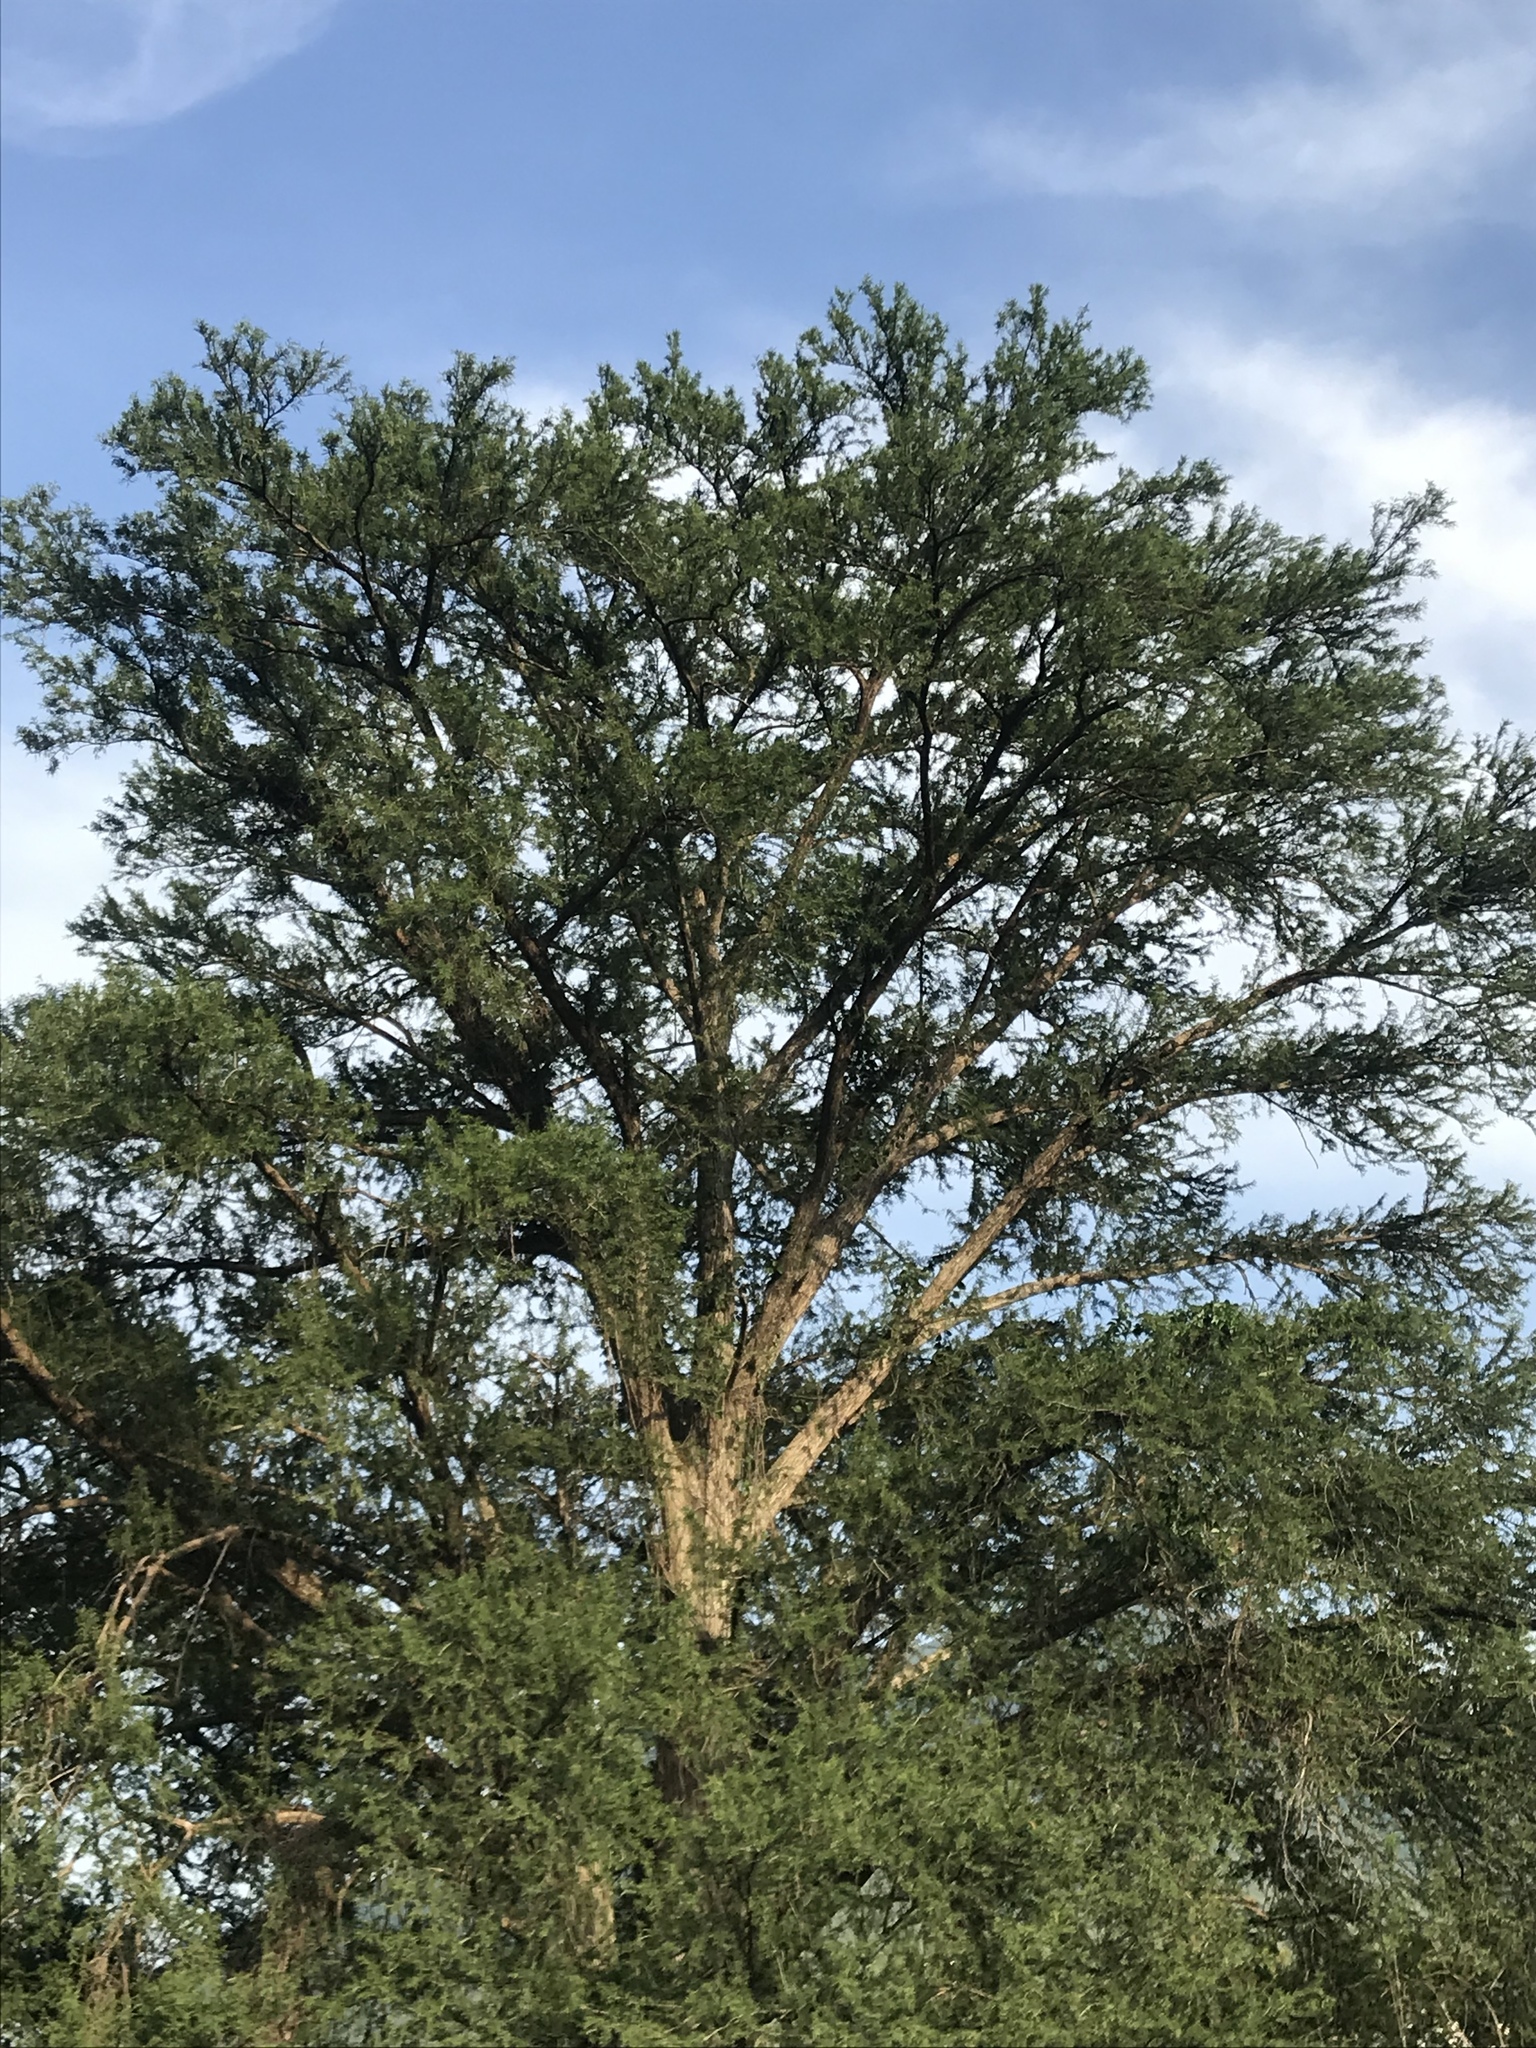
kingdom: Plantae
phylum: Tracheophyta
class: Pinopsida
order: Pinales
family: Cupressaceae
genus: Taxodium
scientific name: Taxodium mucronatum
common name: Montezume bald cypress
